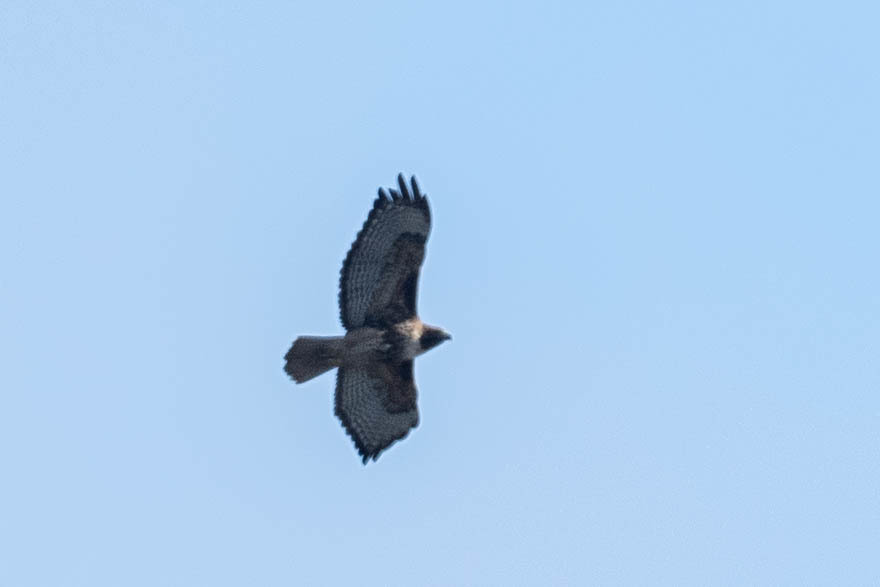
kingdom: Animalia
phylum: Chordata
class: Aves
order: Accipitriformes
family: Accipitridae
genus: Buteo
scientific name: Buteo jamaicensis
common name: Red-tailed hawk
